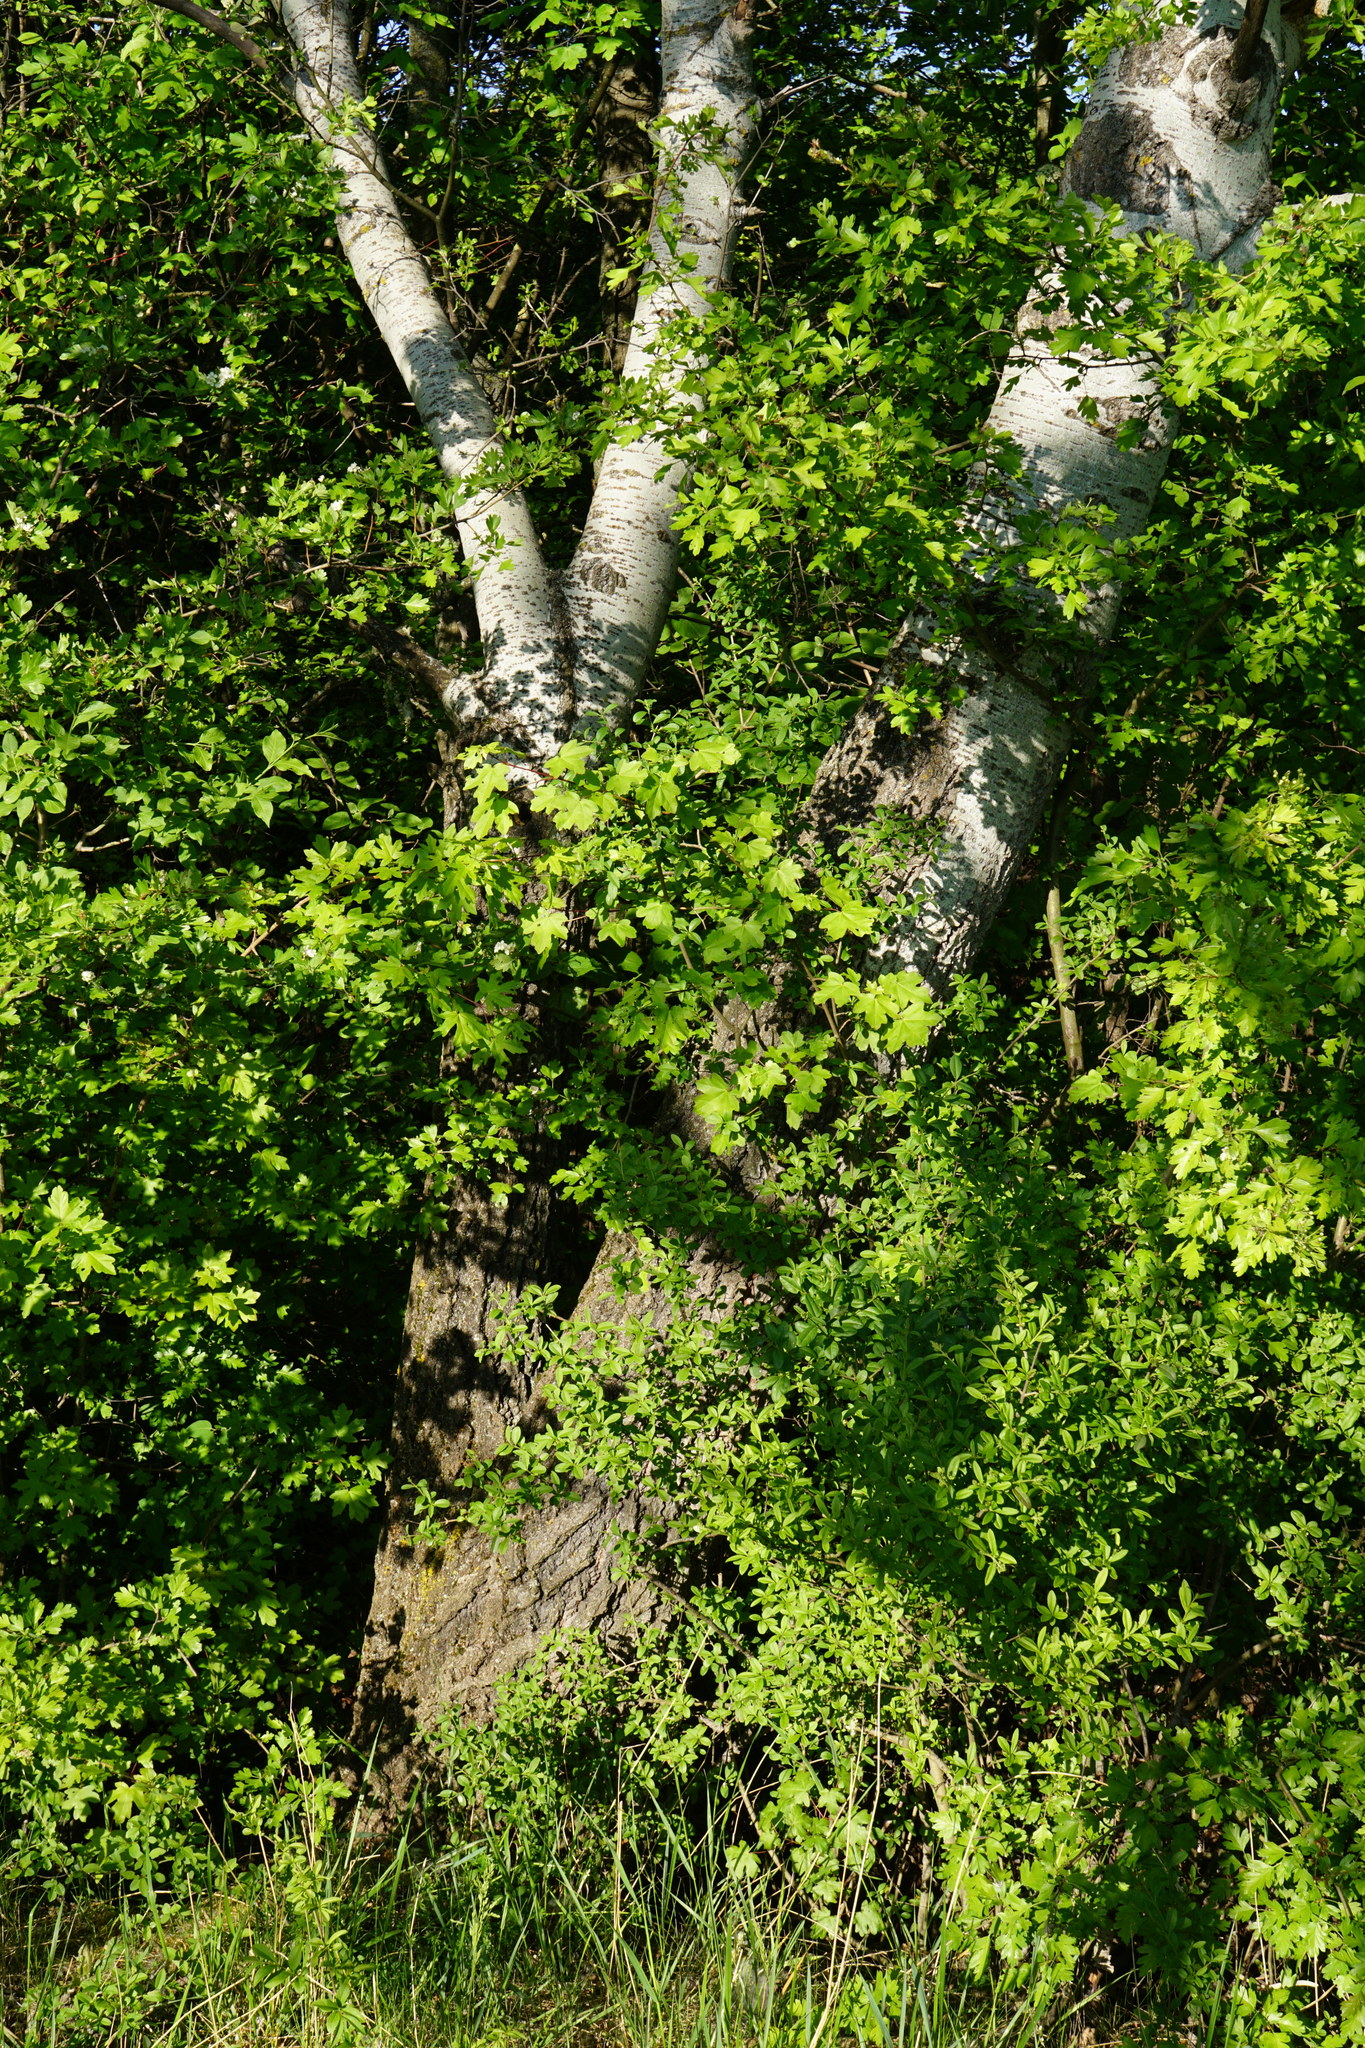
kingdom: Plantae
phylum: Tracheophyta
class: Magnoliopsida
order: Malpighiales
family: Salicaceae
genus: Populus
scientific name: Populus alba
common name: White poplar
